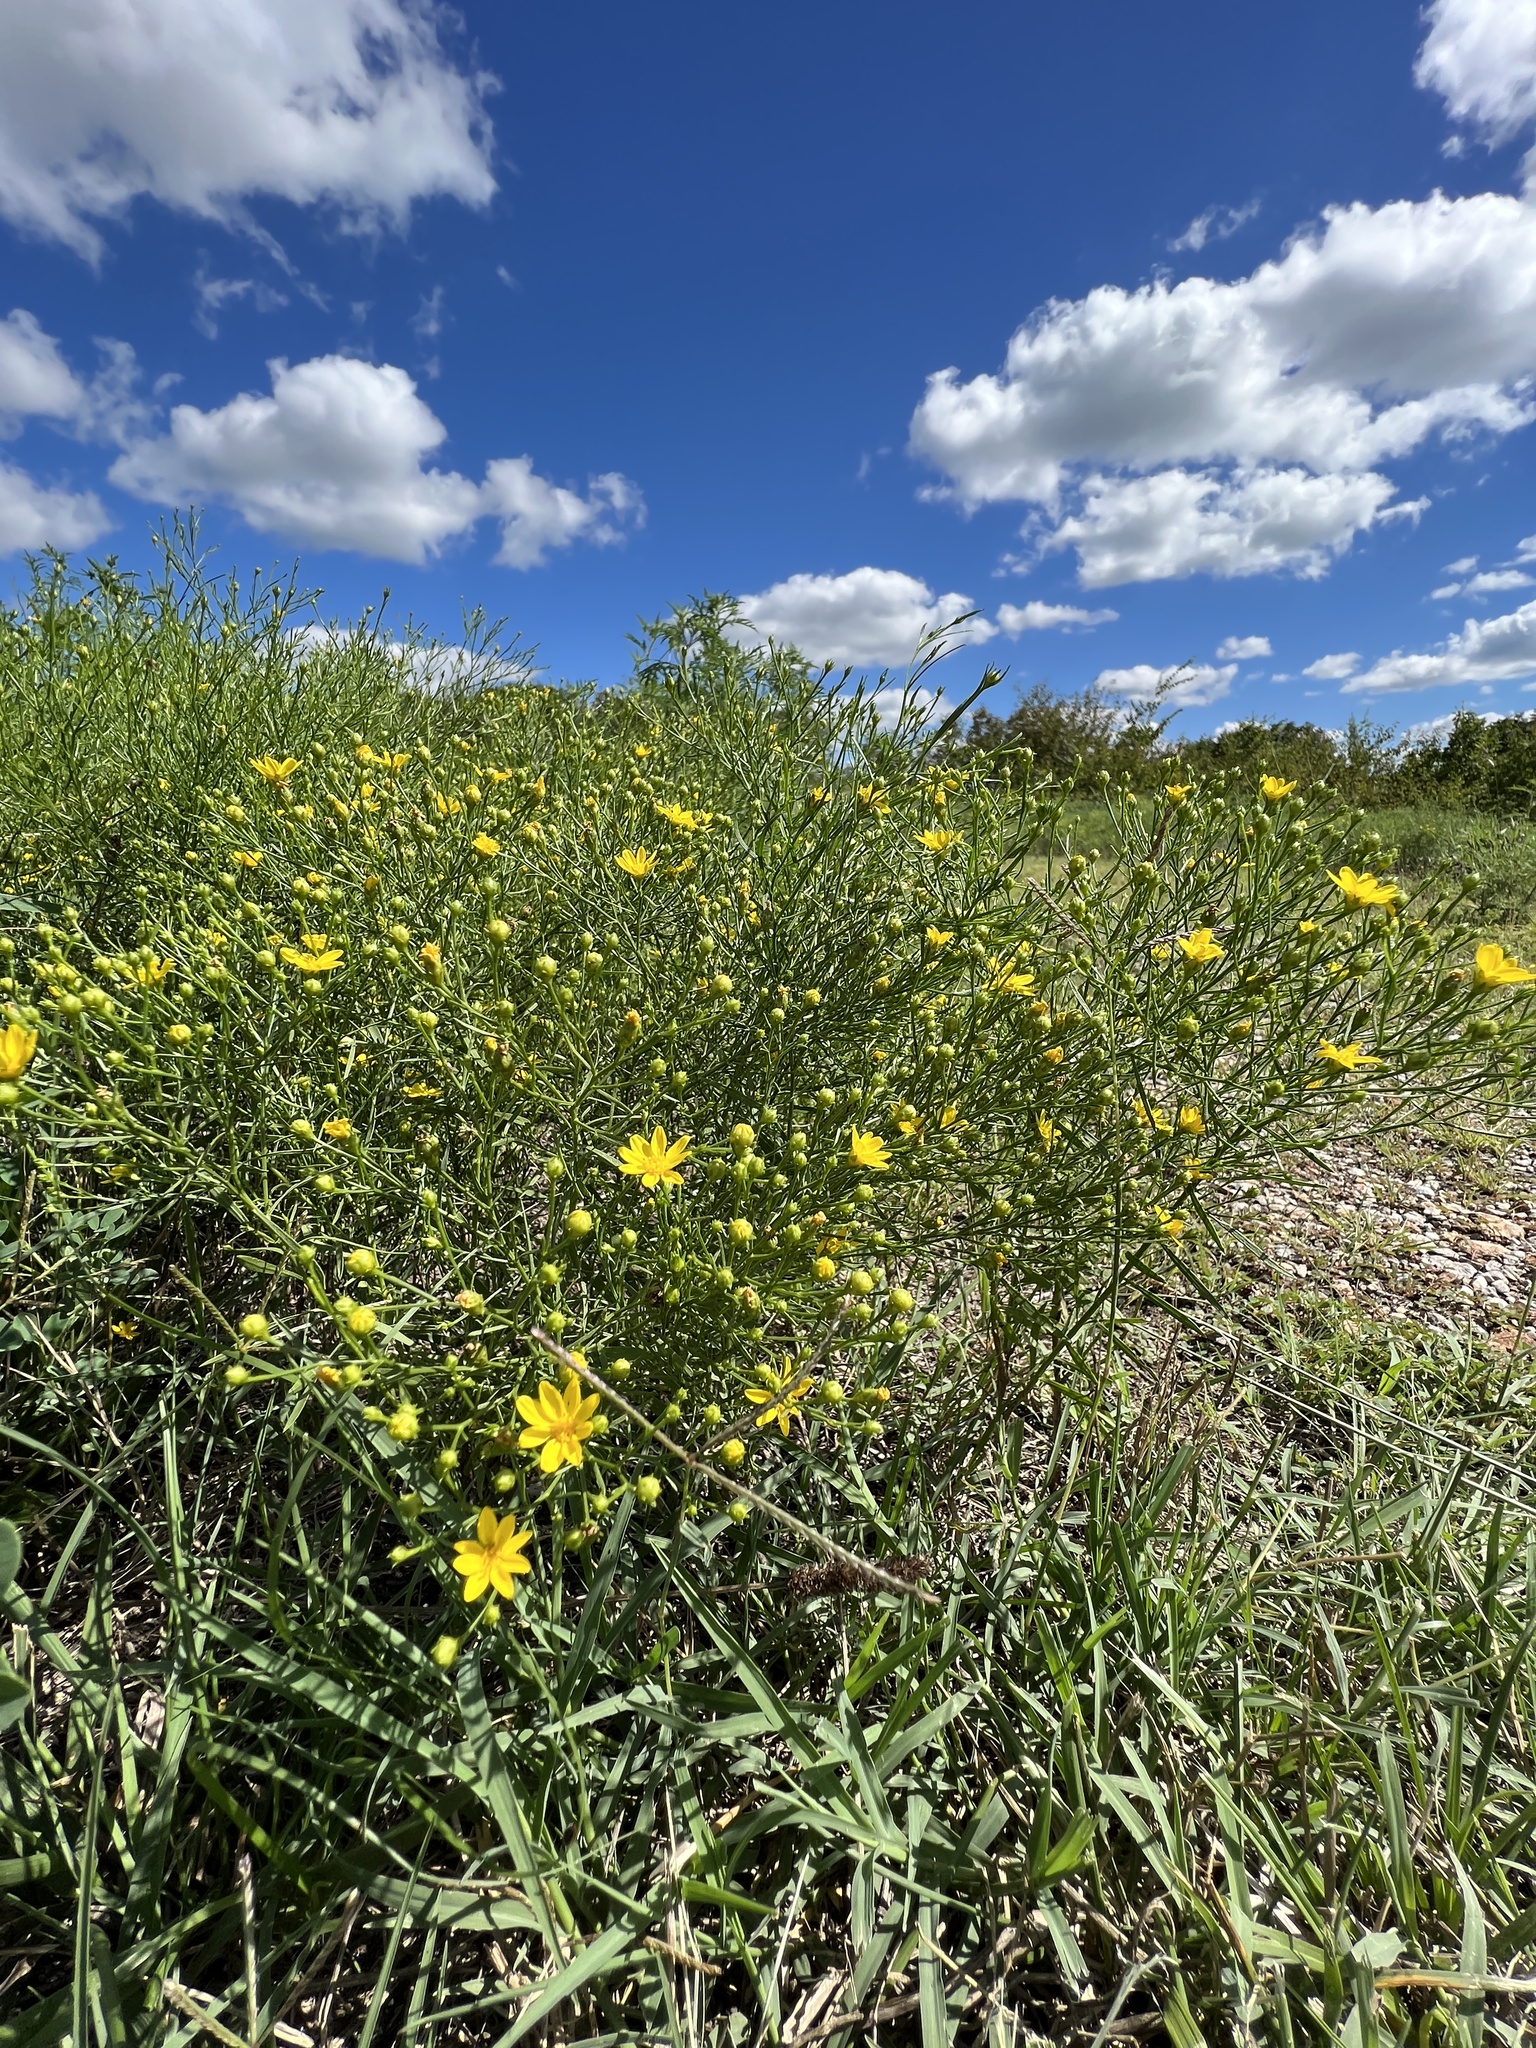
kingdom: Plantae
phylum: Tracheophyta
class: Magnoliopsida
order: Asterales
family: Asteraceae
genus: Amphiachyris
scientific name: Amphiachyris dracunculoides
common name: Broomweed
